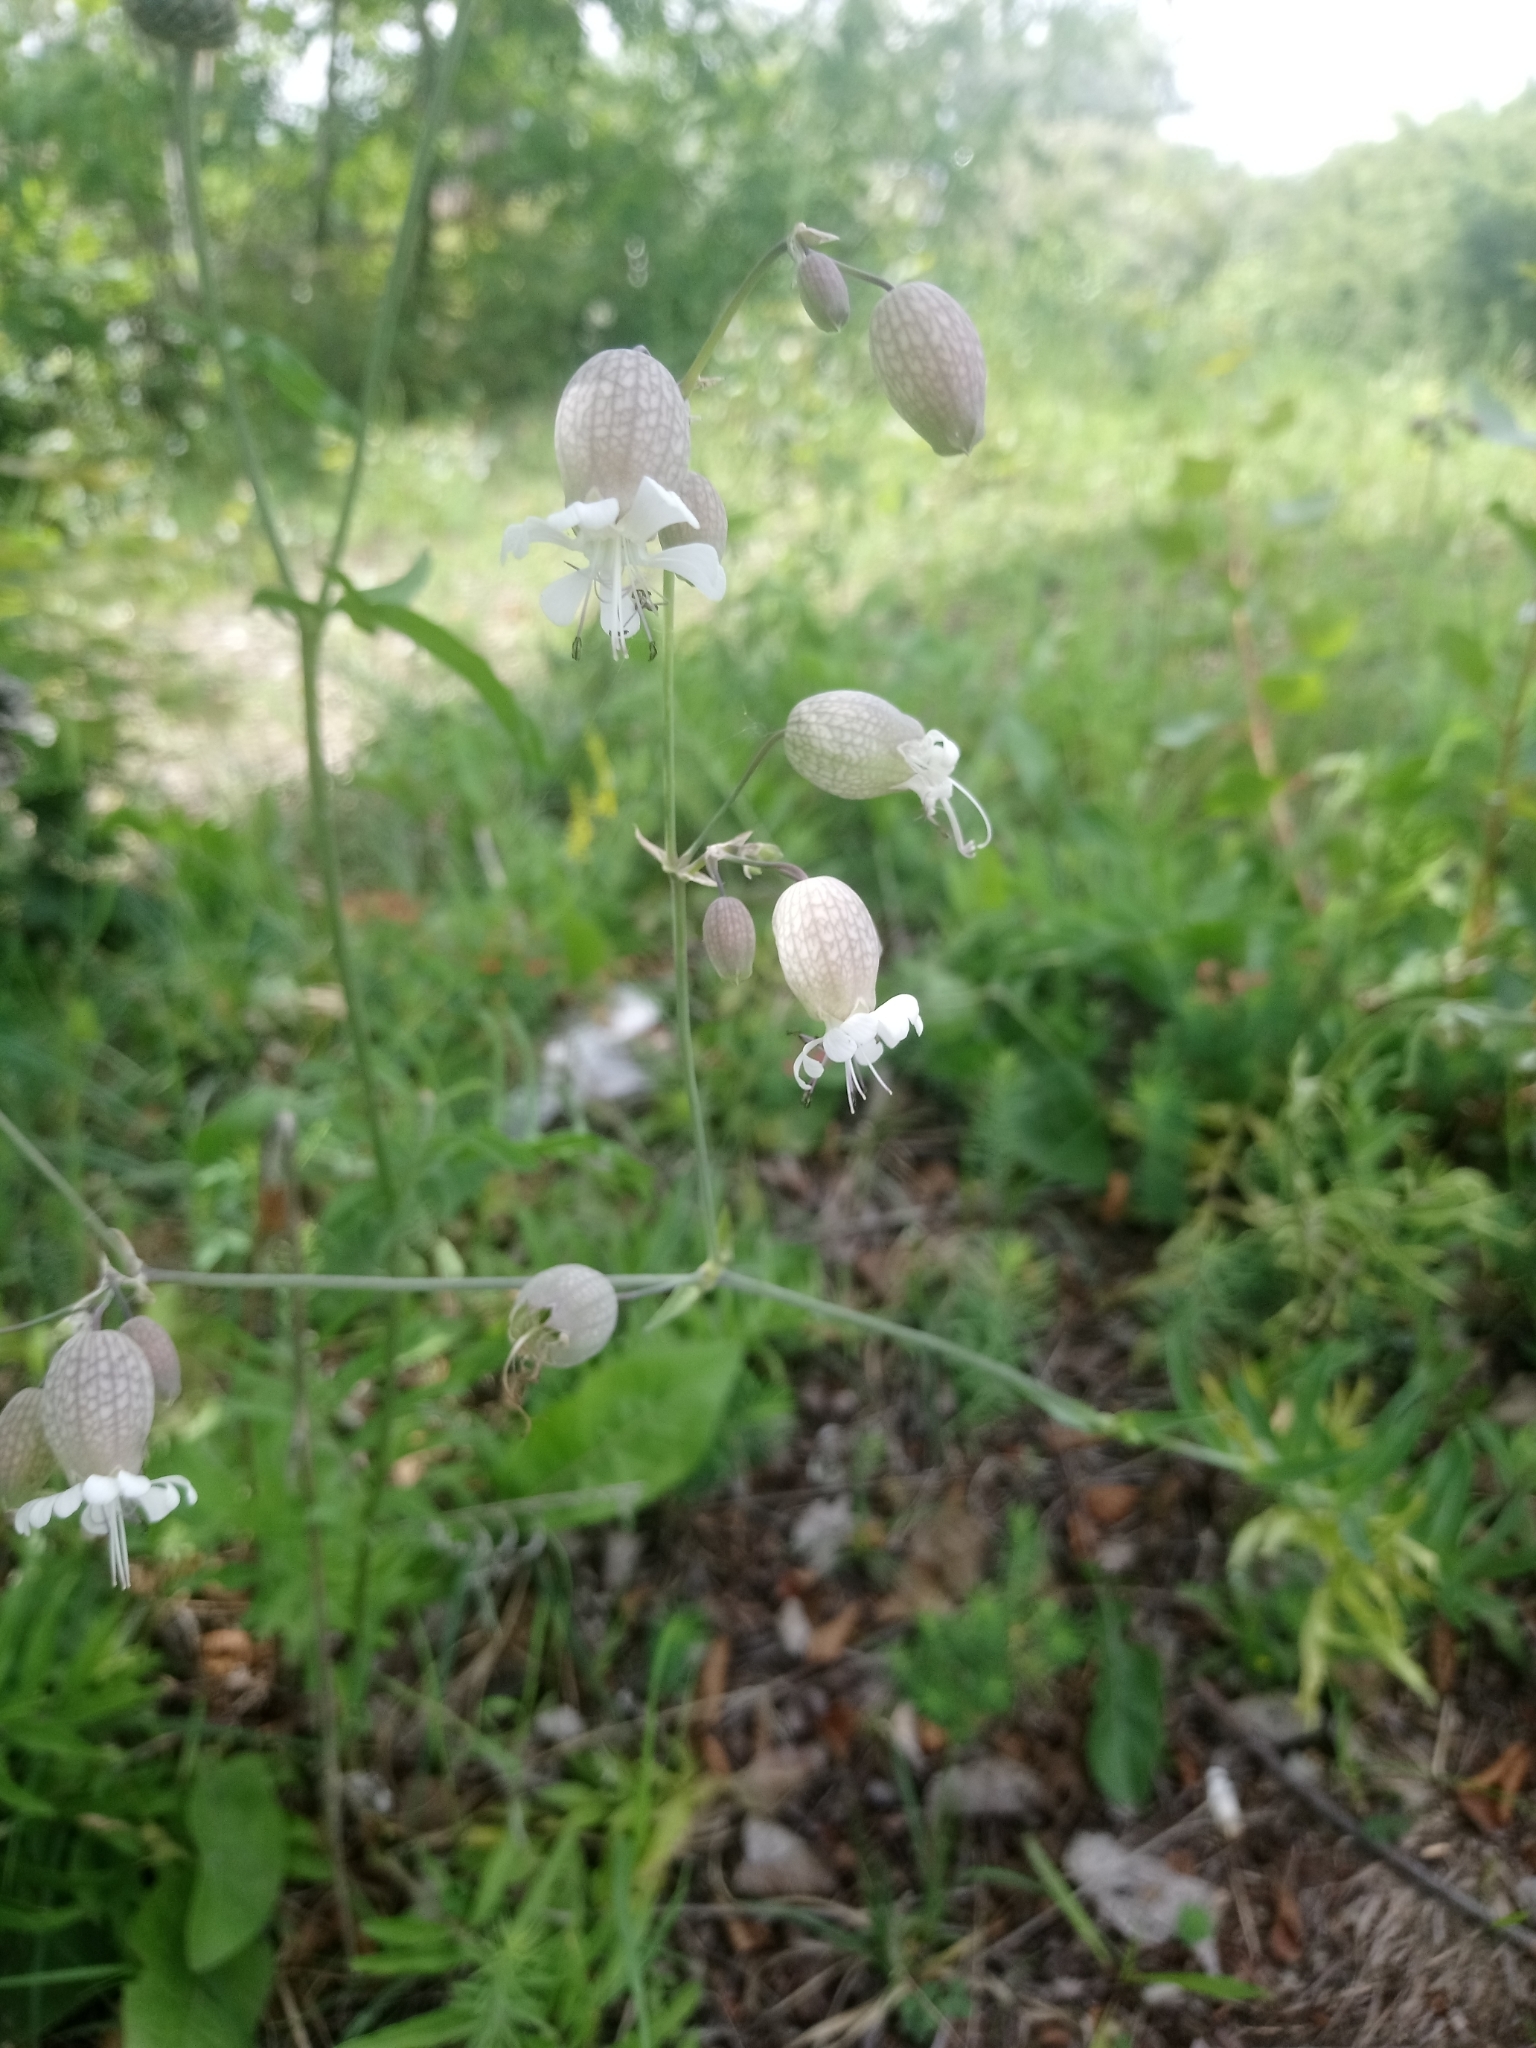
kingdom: Plantae
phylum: Tracheophyta
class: Magnoliopsida
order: Caryophyllales
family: Caryophyllaceae
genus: Silene
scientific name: Silene vulgaris
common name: Bladder campion
